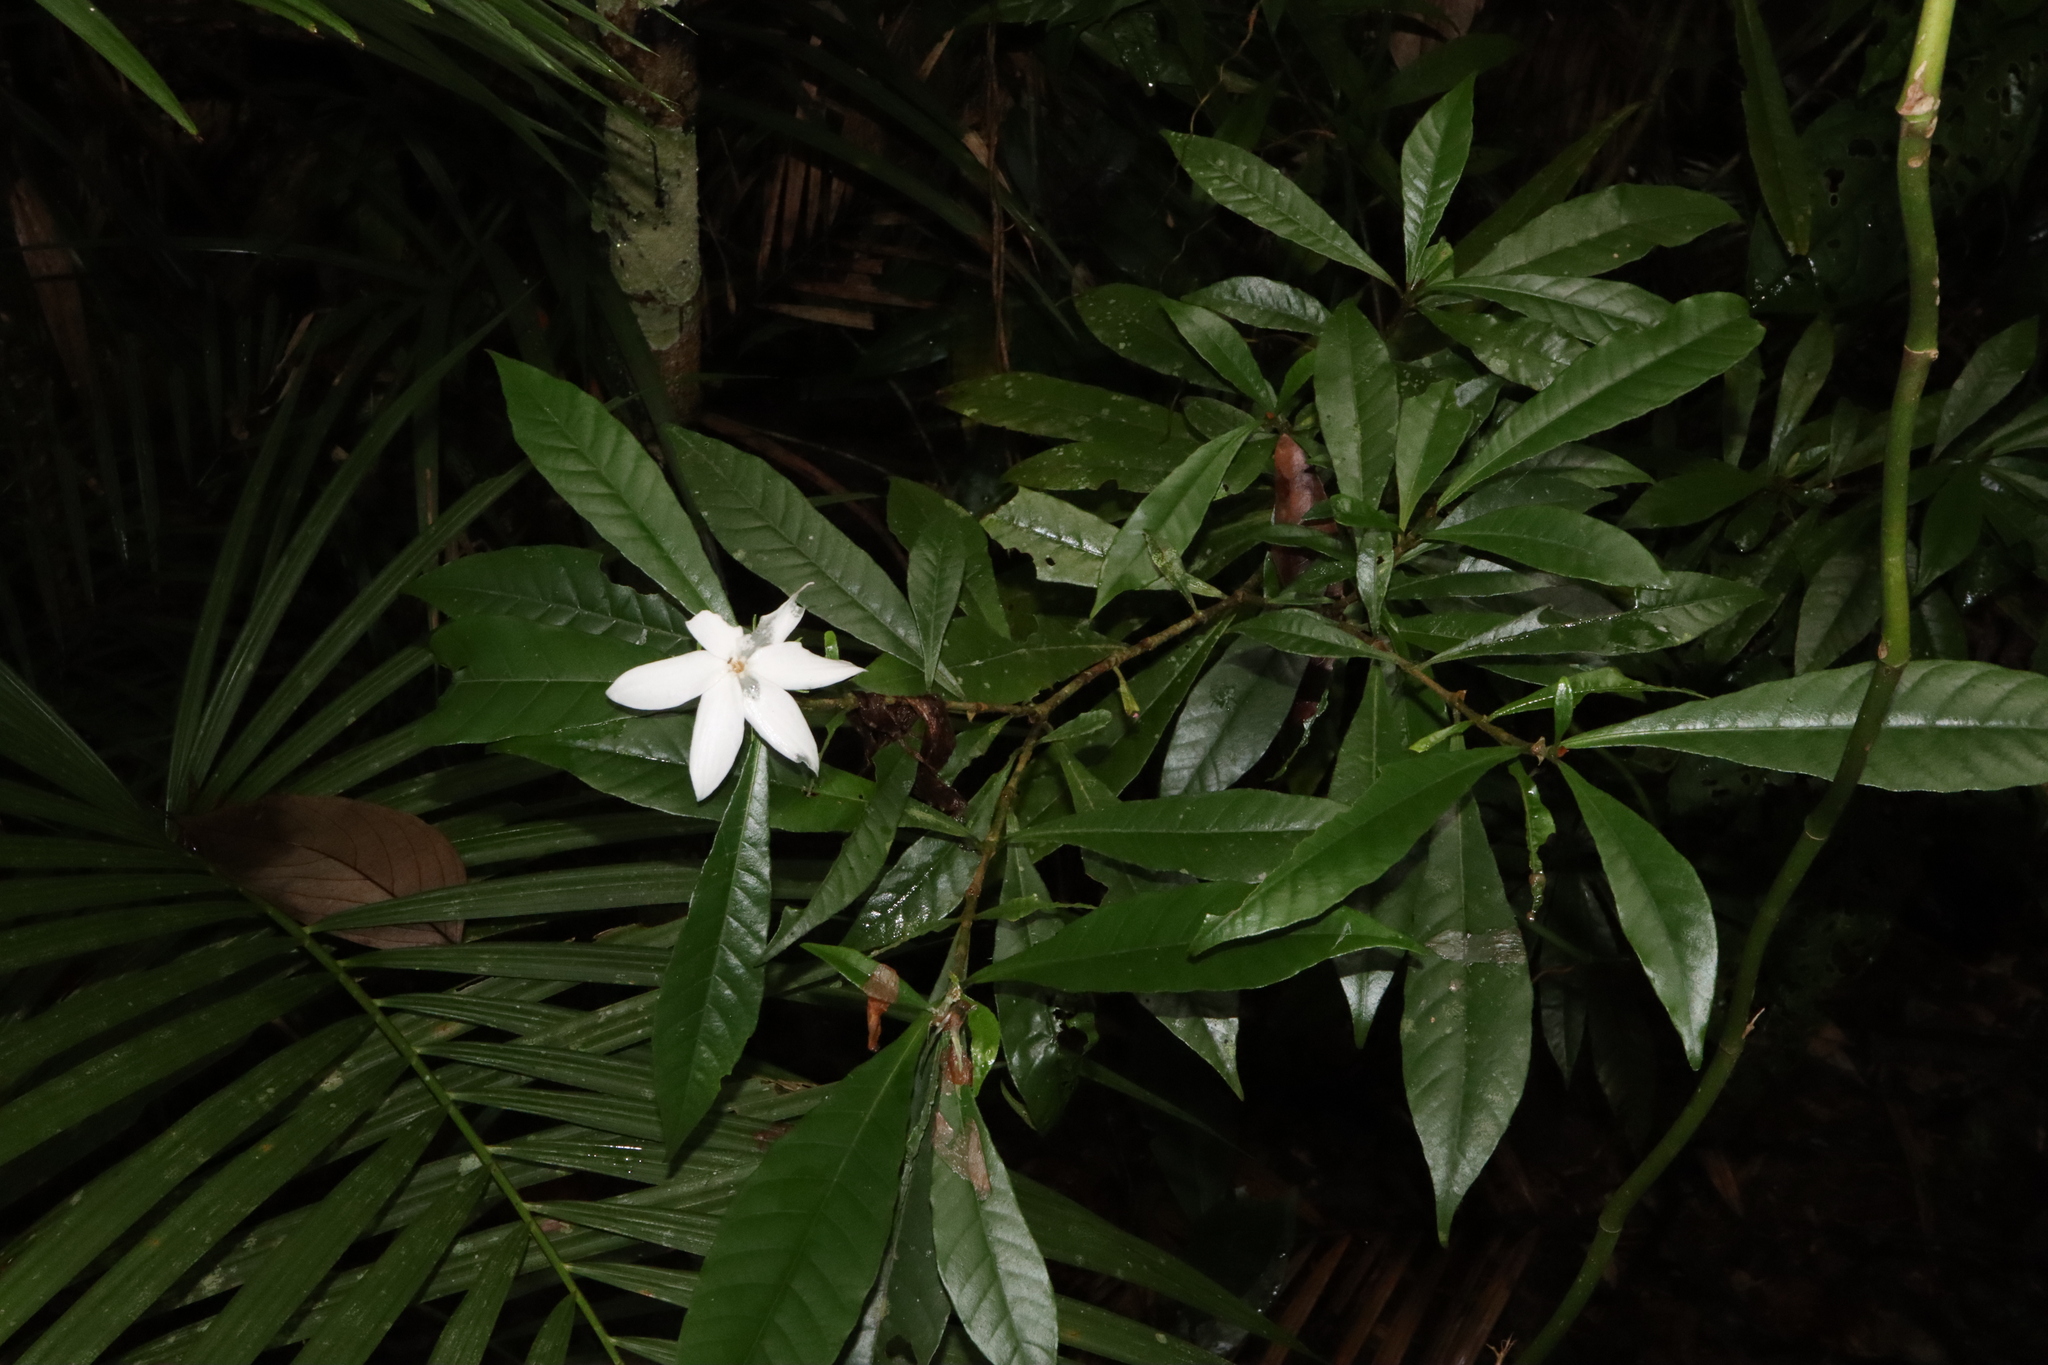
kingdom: Plantae
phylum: Tracheophyta
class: Magnoliopsida
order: Gentianales
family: Rubiaceae
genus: Gardenia
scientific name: Gardenia actinocarpa
